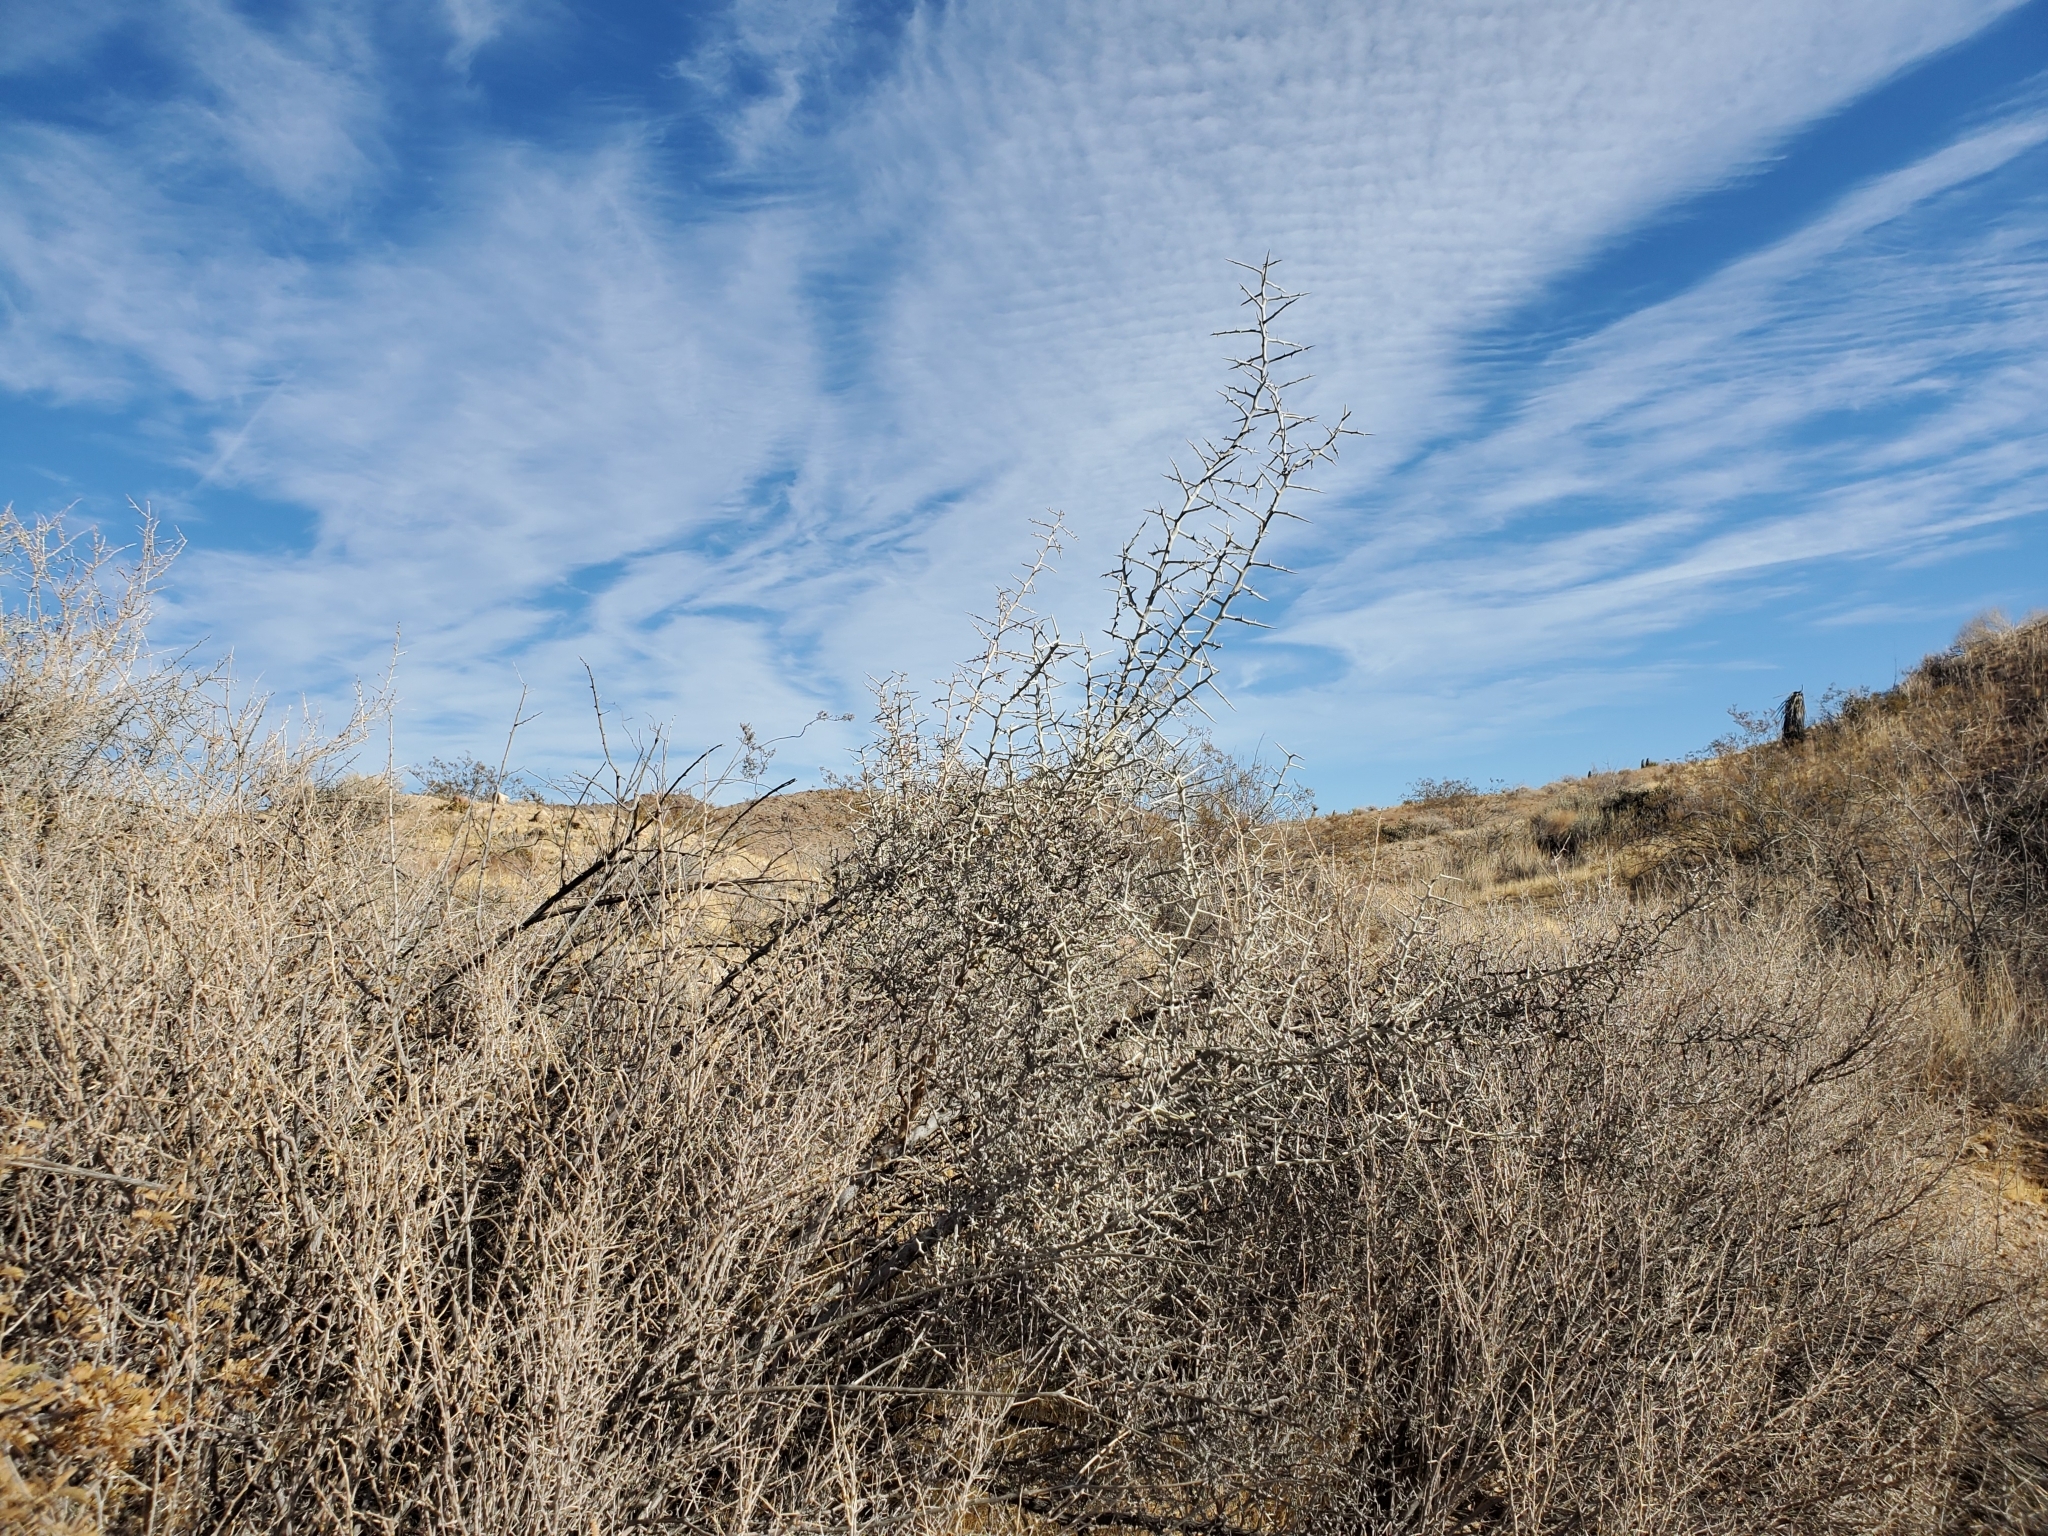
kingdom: Plantae
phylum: Tracheophyta
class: Magnoliopsida
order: Rosales
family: Rhamnaceae
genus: Sarcomphalus
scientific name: Sarcomphalus obtusifolius
